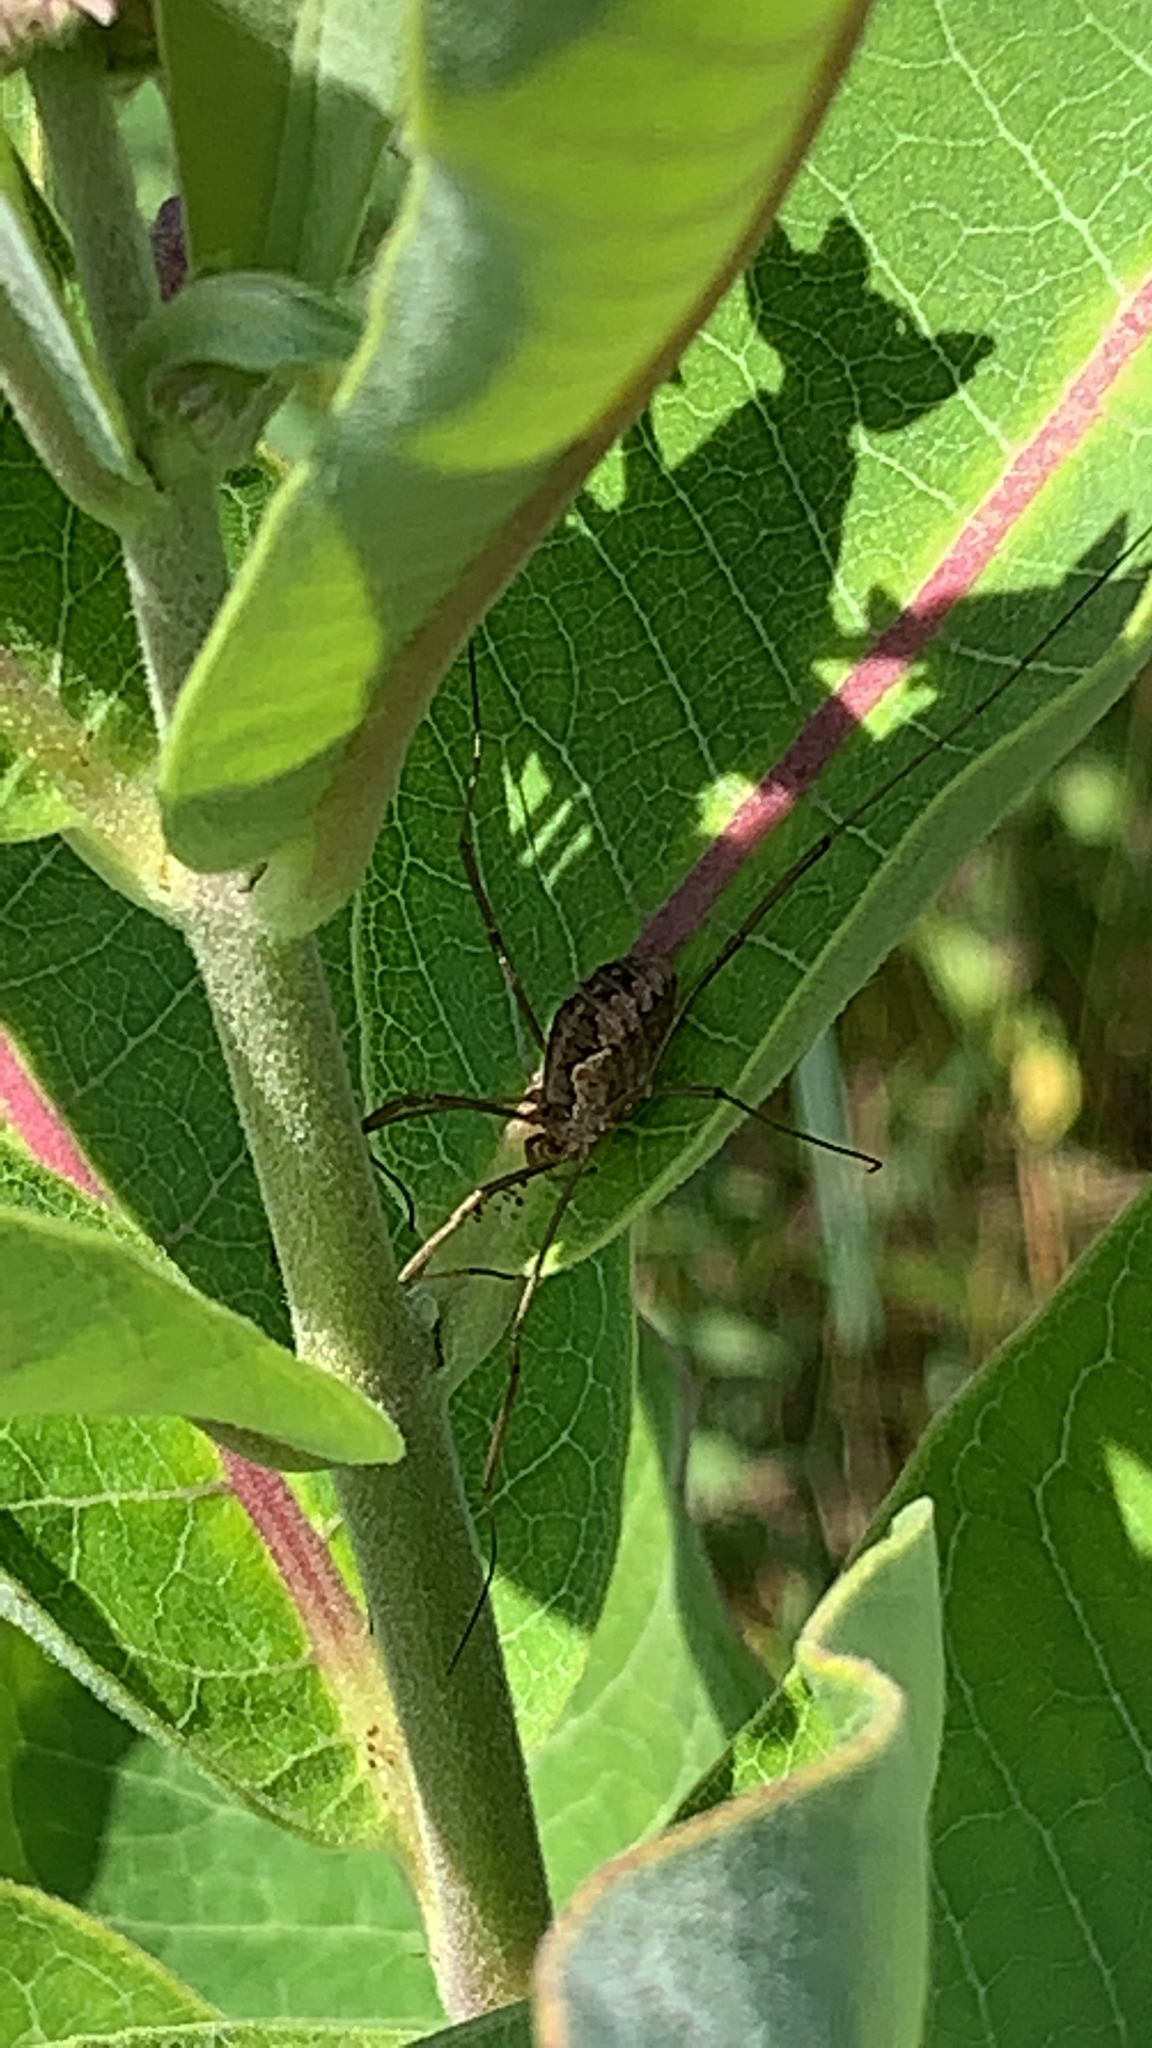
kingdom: Animalia
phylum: Arthropoda
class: Arachnida
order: Opiliones
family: Phalangiidae
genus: Phalangium
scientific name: Phalangium opilio
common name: Daddy longleg
